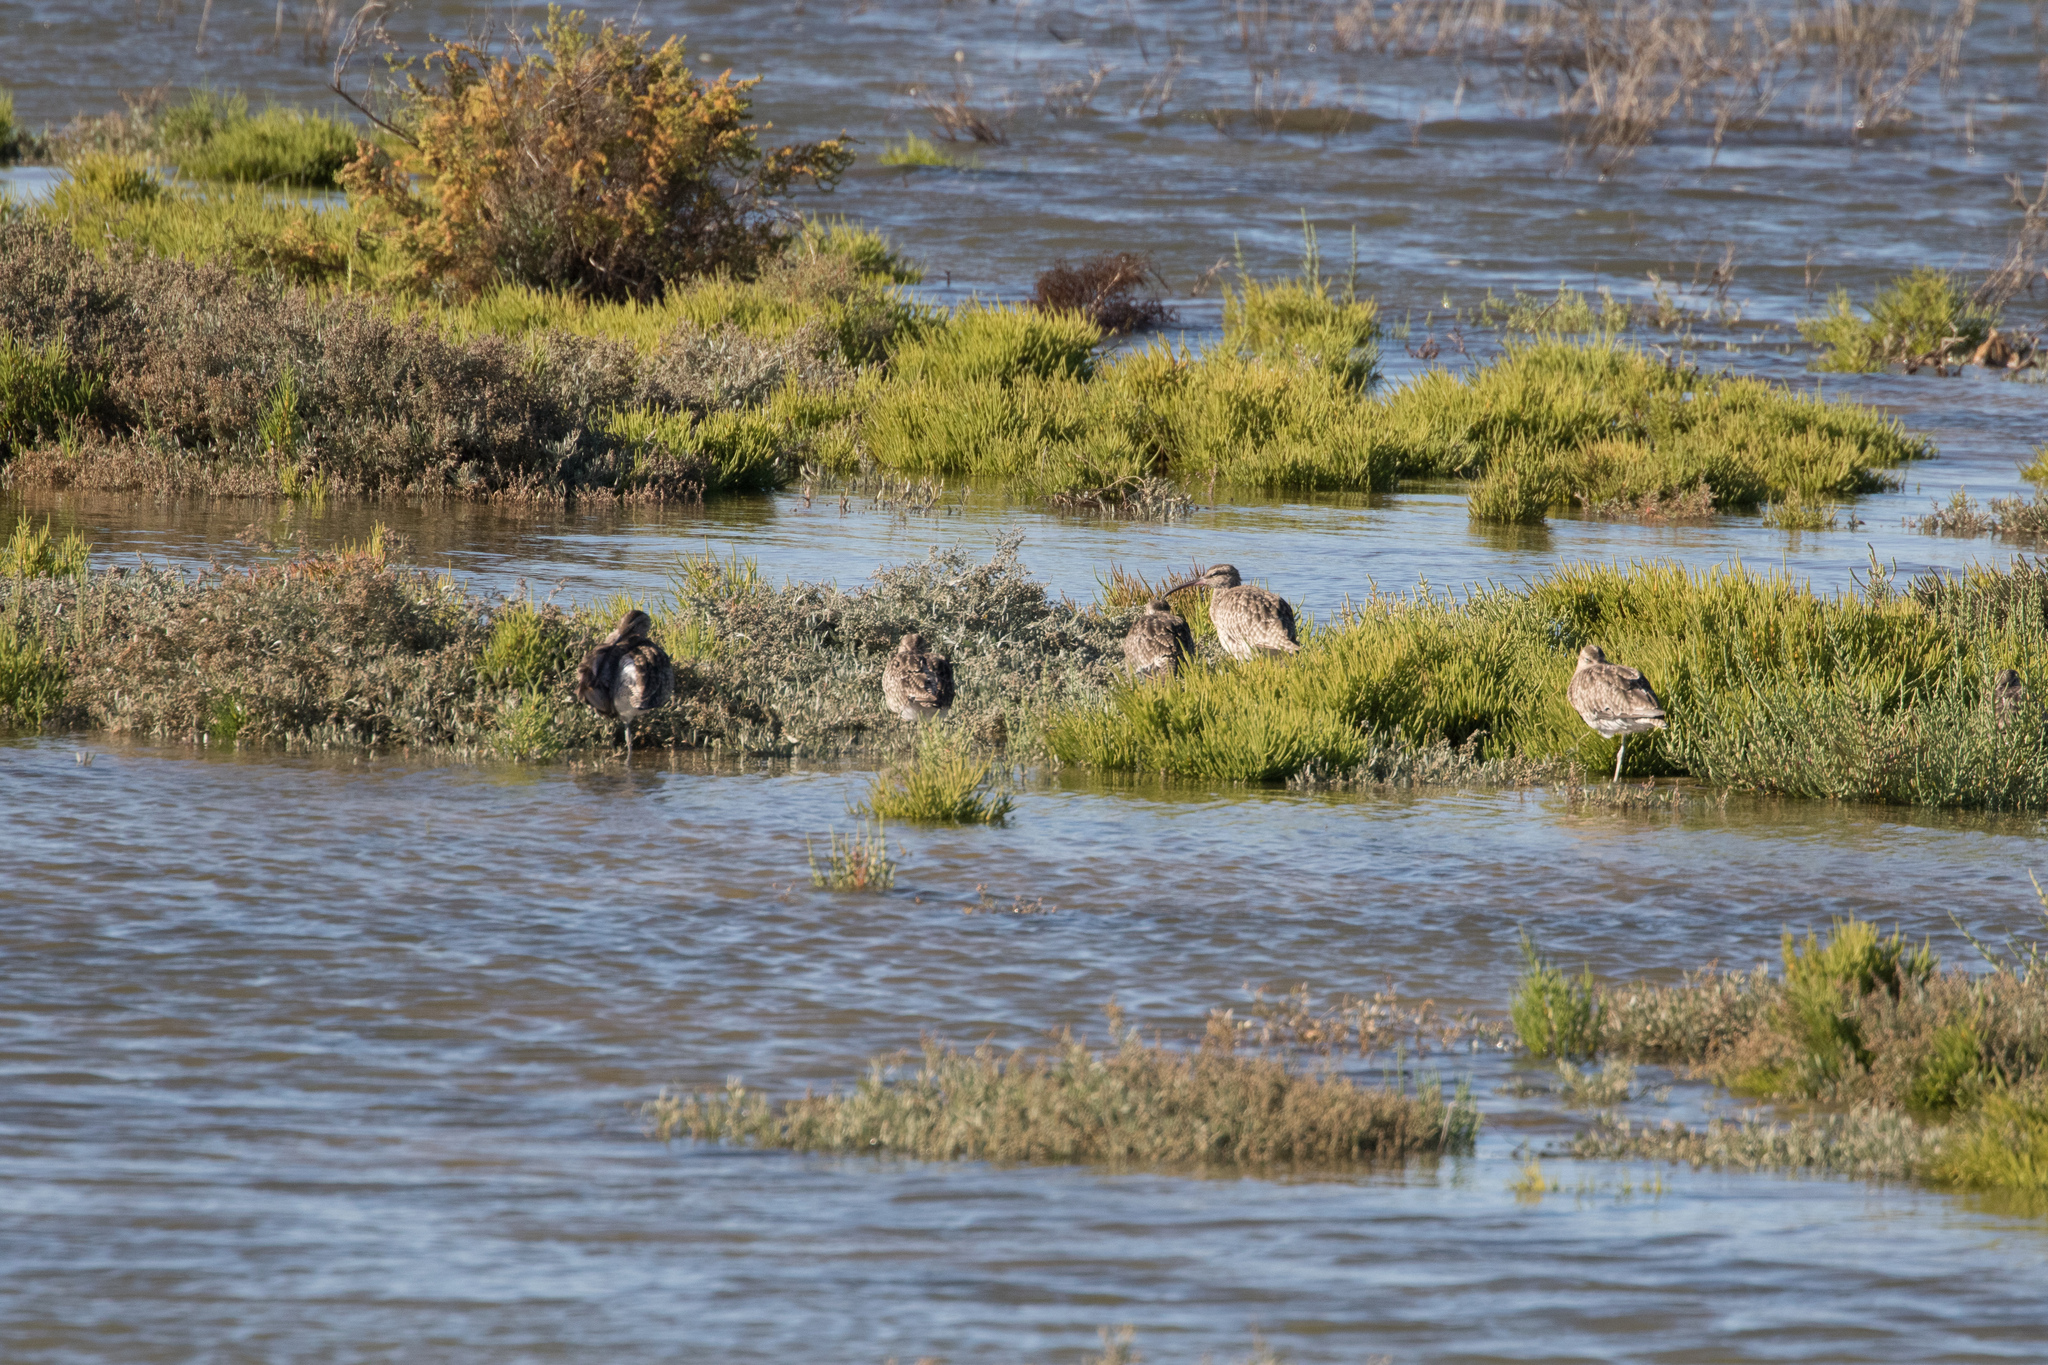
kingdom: Animalia
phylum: Chordata
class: Aves
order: Charadriiformes
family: Scolopacidae
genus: Numenius
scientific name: Numenius phaeopus
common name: Whimbrel
